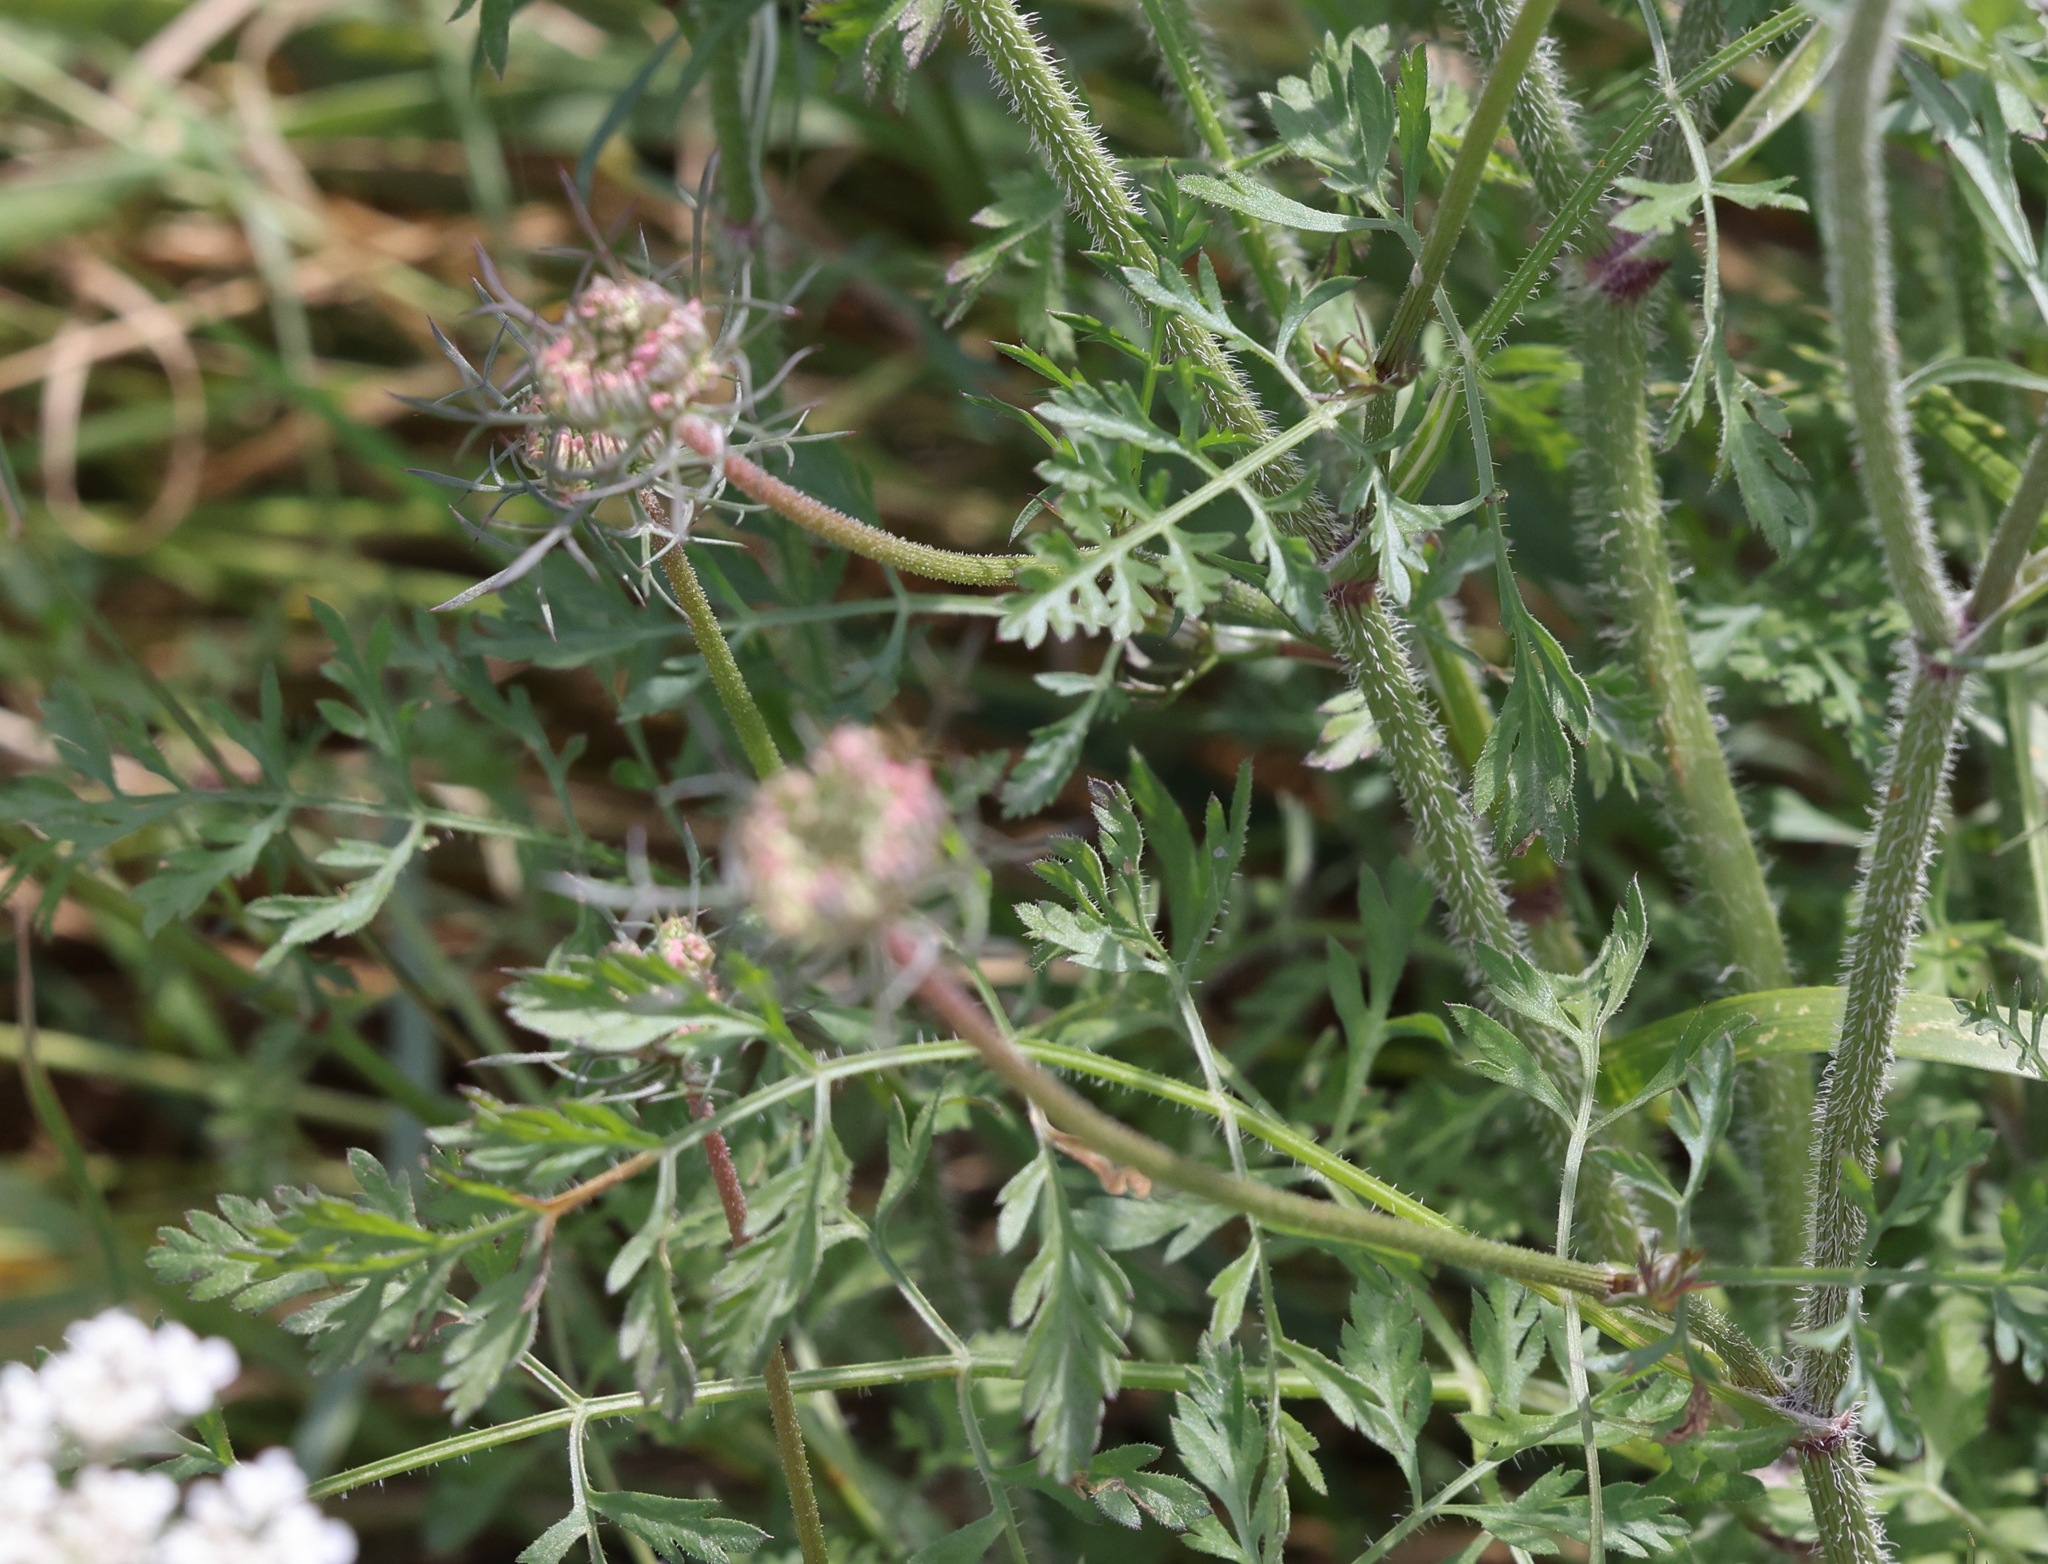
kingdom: Plantae
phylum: Tracheophyta
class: Magnoliopsida
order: Apiales
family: Apiaceae
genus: Daucus
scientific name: Daucus carota
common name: Wild carrot
